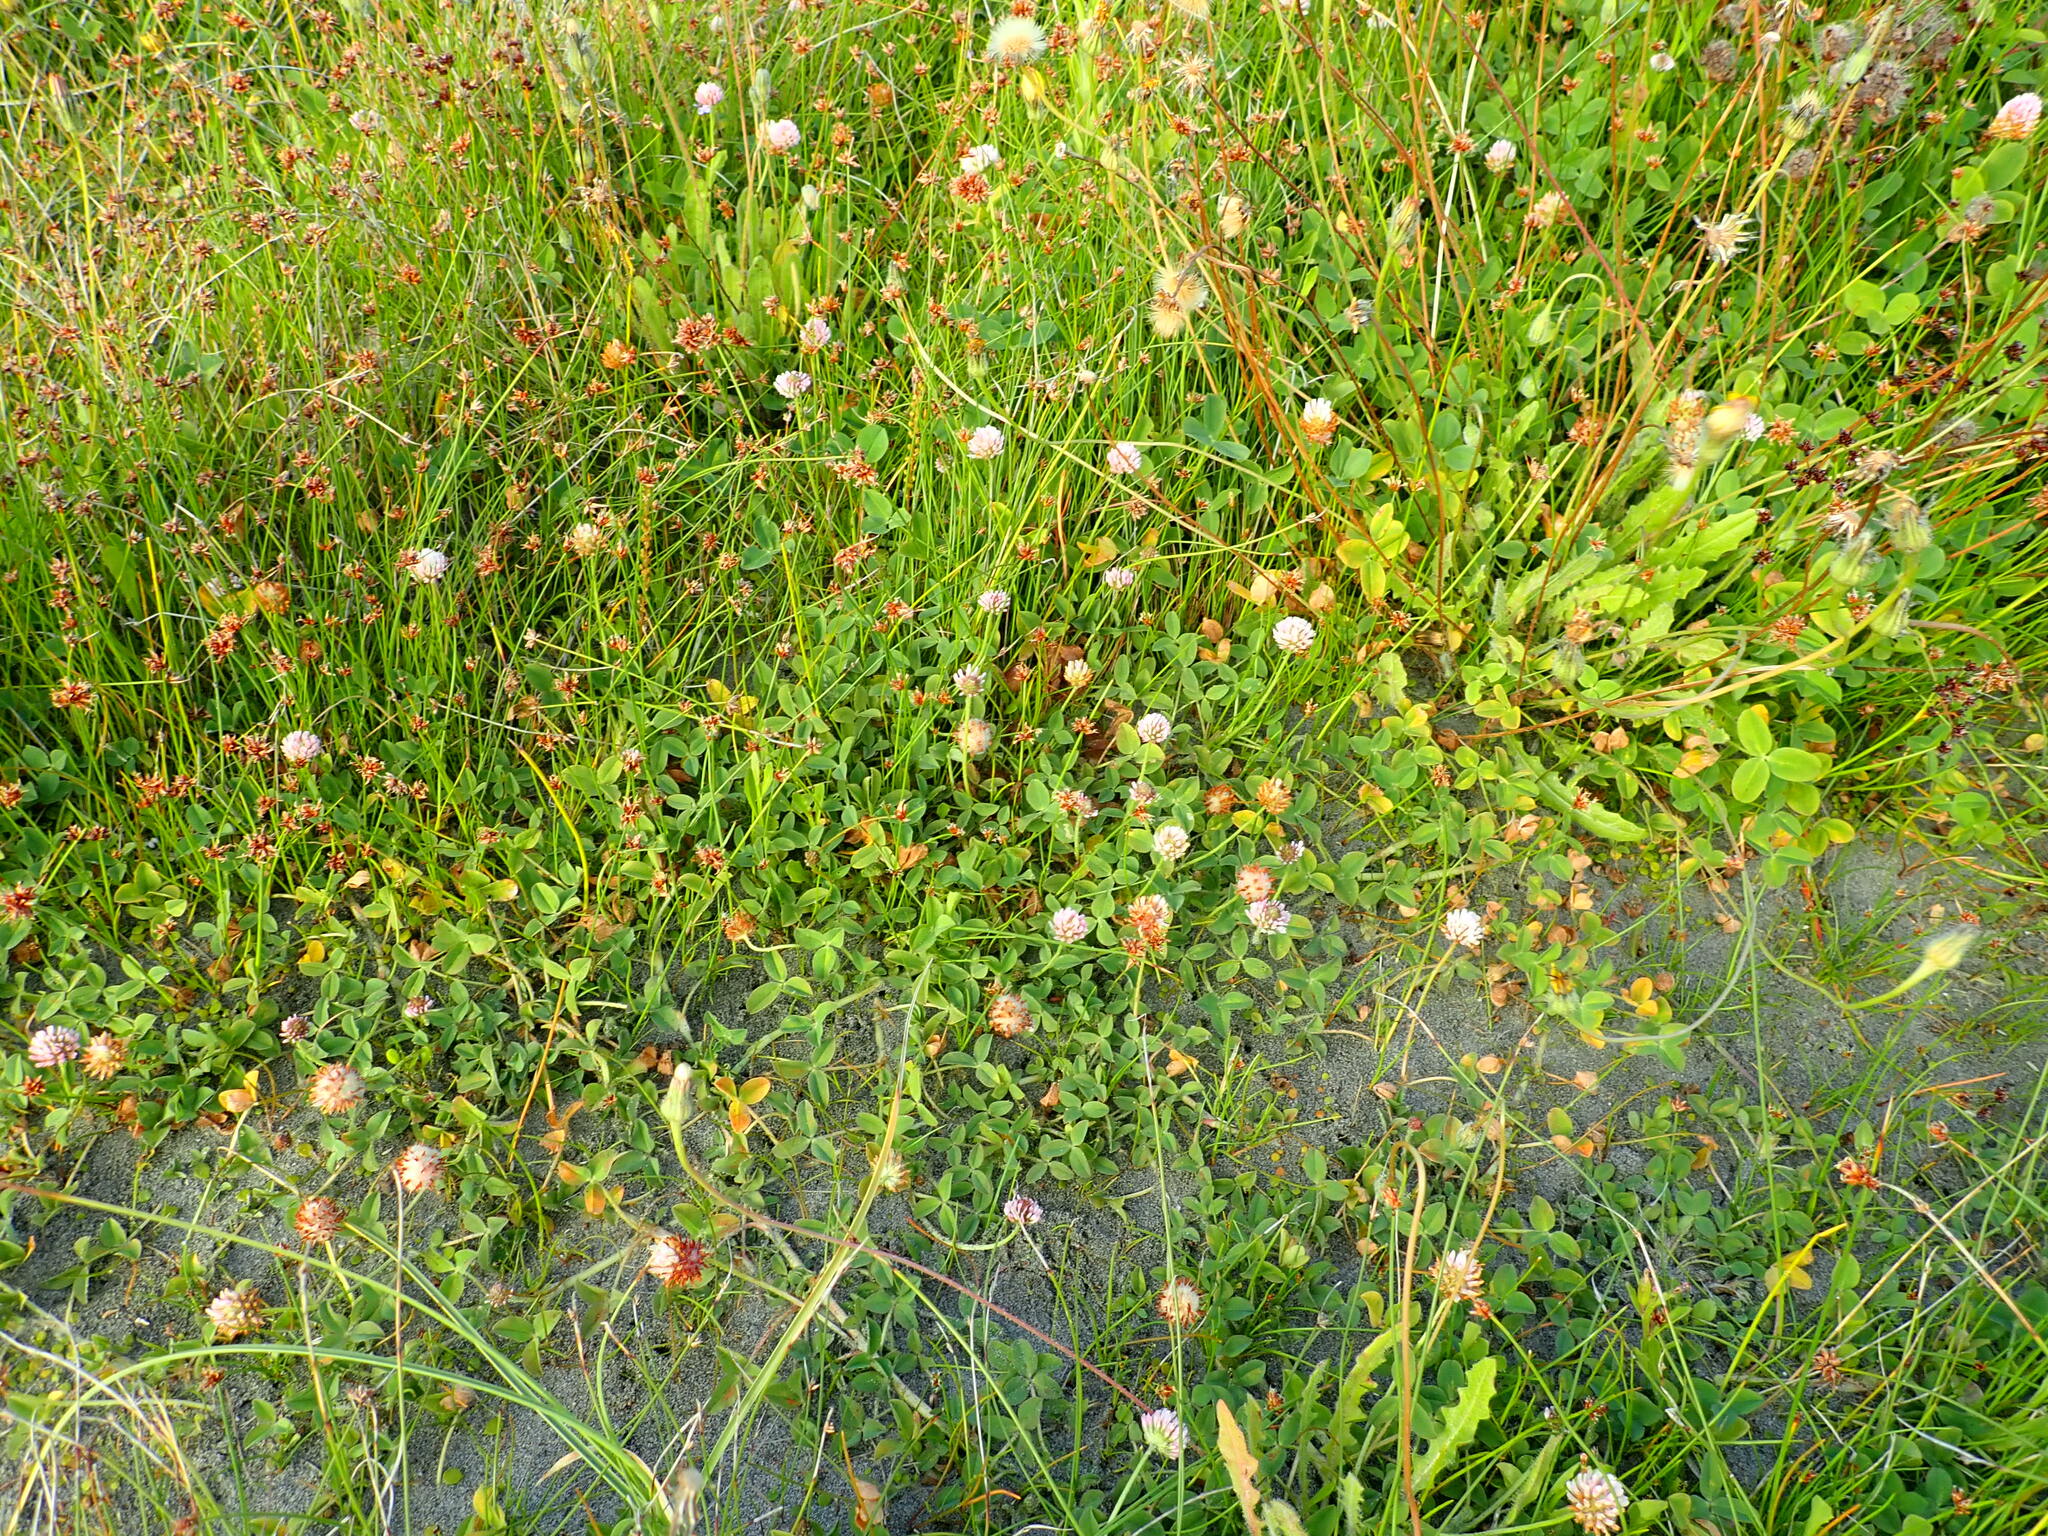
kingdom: Plantae
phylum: Tracheophyta
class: Magnoliopsida
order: Fabales
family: Fabaceae
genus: Trifolium
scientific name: Trifolium fragiferum
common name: Strawberry clover
